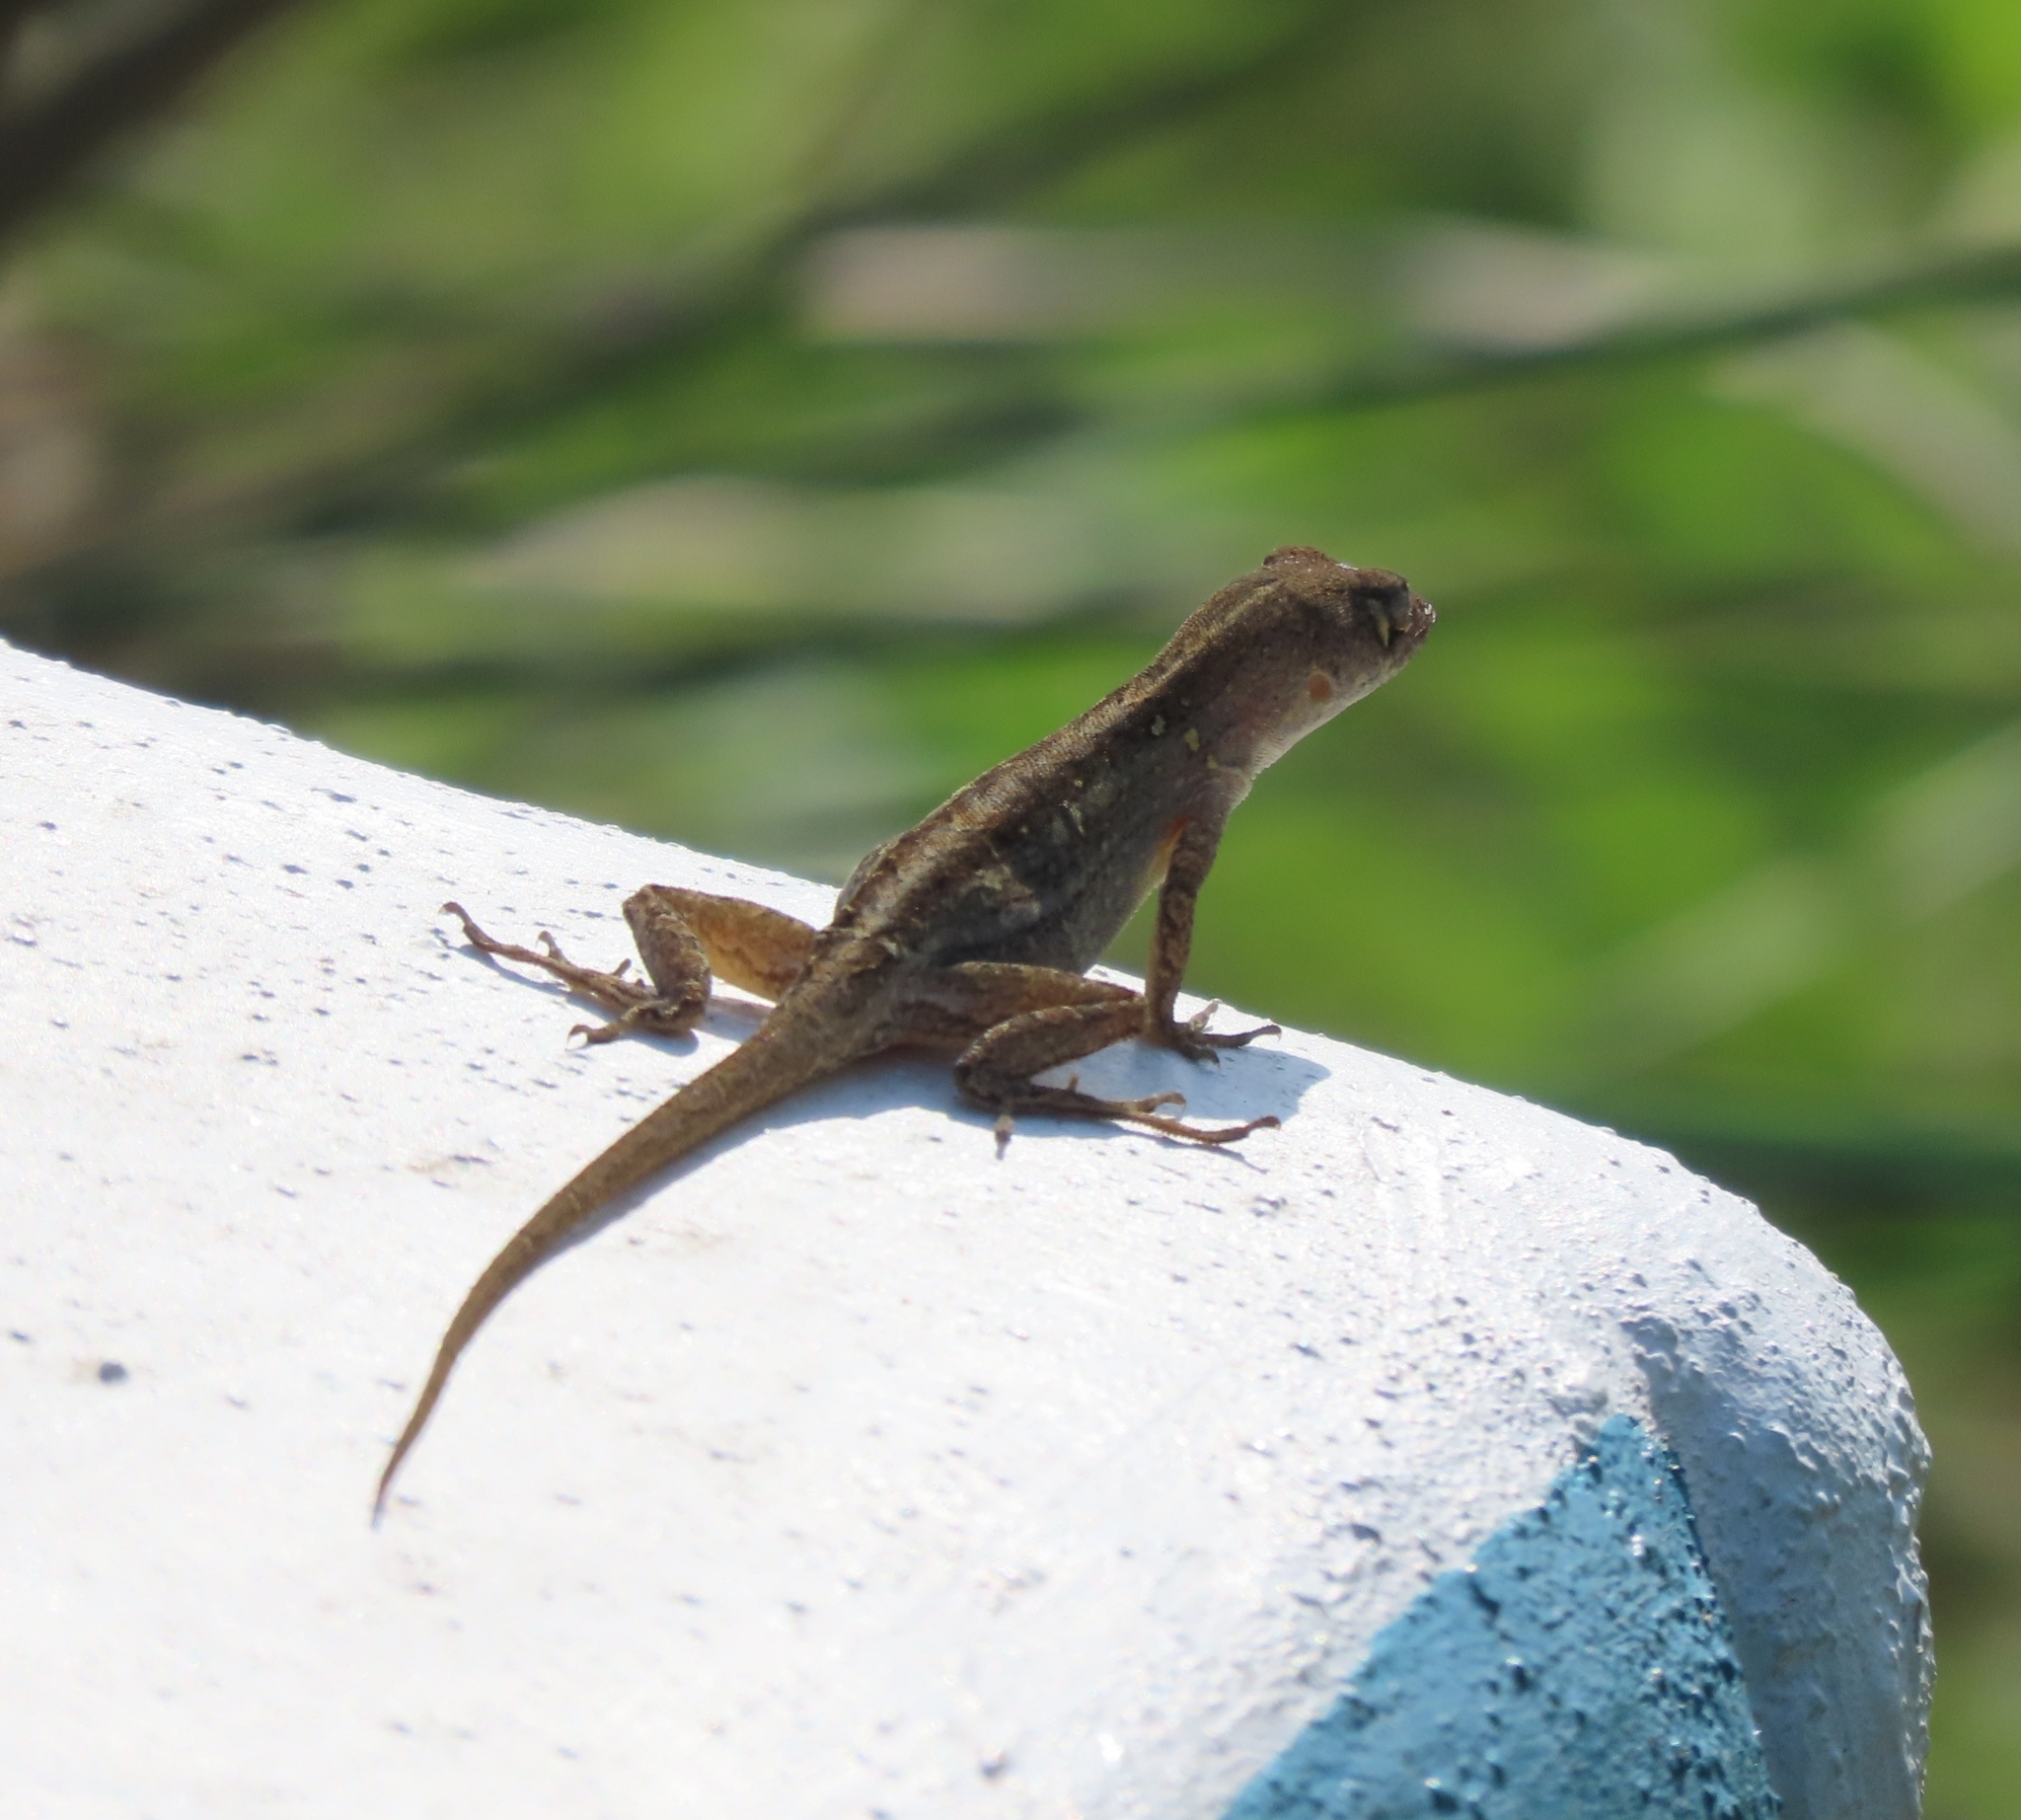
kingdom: Animalia
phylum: Chordata
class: Squamata
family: Dactyloidae
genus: Anolis
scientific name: Anolis sagrei
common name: Brown anole
